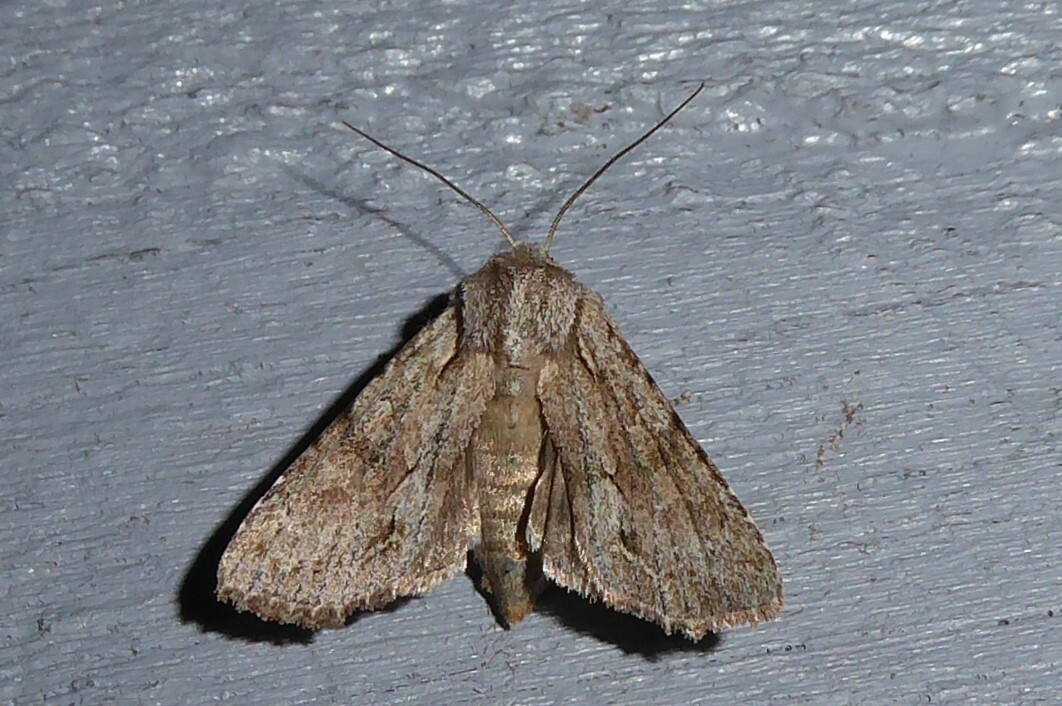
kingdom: Animalia
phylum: Arthropoda
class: Insecta
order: Lepidoptera
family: Noctuidae
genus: Ichneutica
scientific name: Ichneutica
